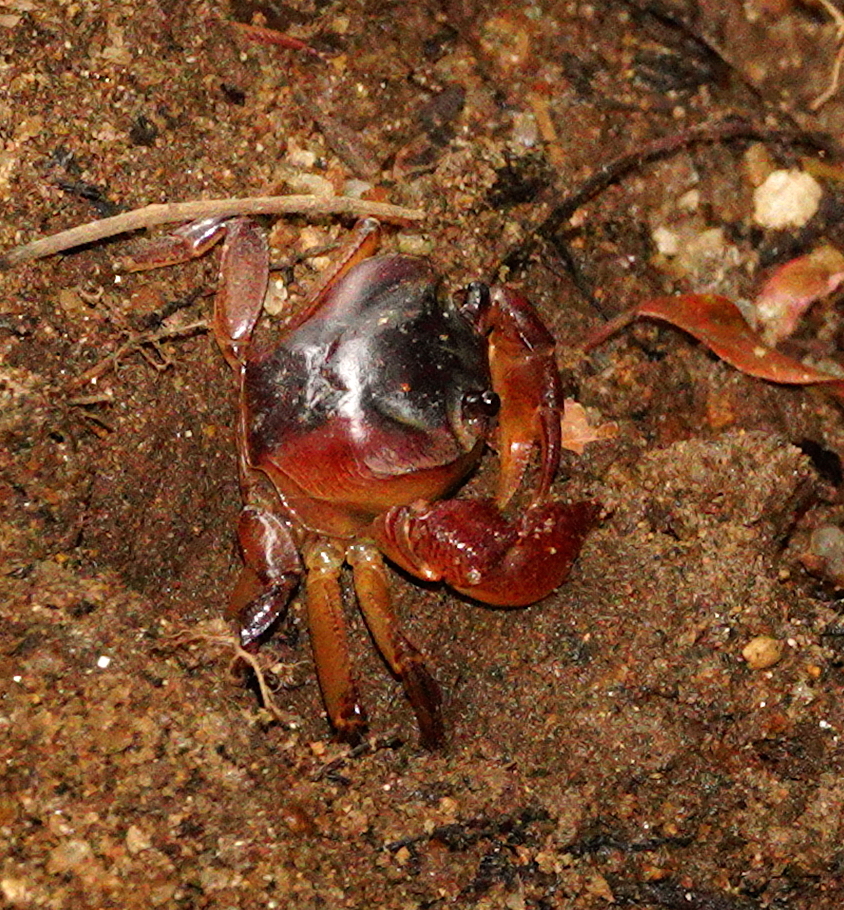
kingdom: Animalia
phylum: Arthropoda
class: Malacostraca
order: Decapoda
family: Gecarcinucidae
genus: Mahatha
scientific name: Mahatha adonis
